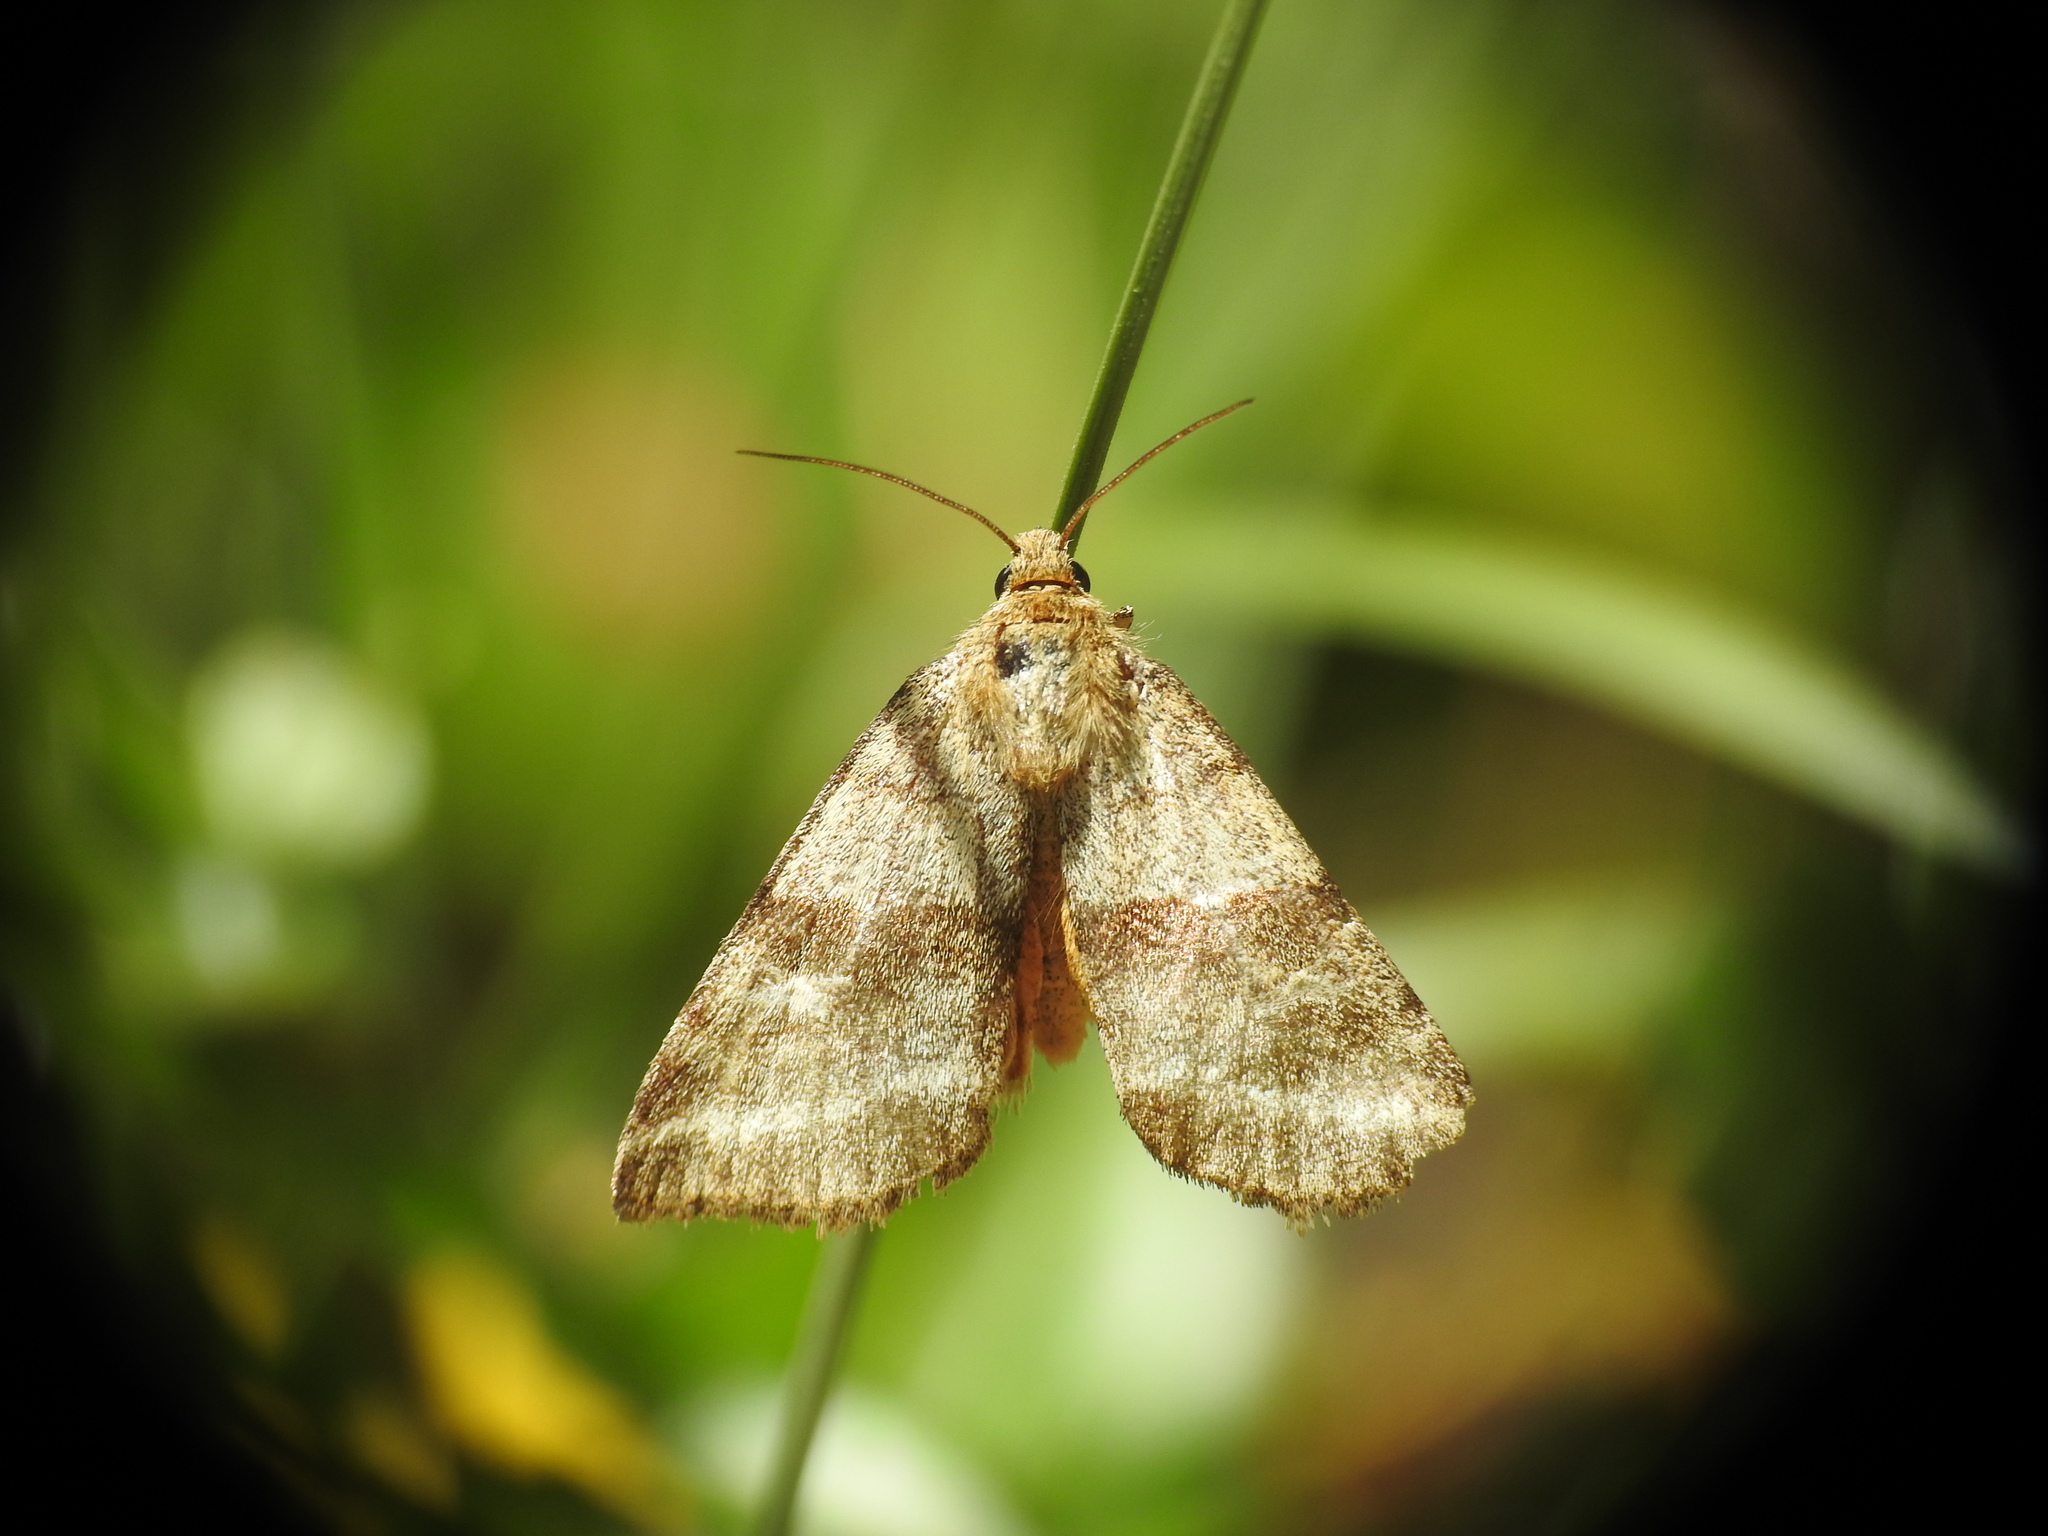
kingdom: Animalia
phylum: Arthropoda
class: Insecta
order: Lepidoptera
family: Noctuidae
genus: Synthymia
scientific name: Synthymia fixa
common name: Goldwing
